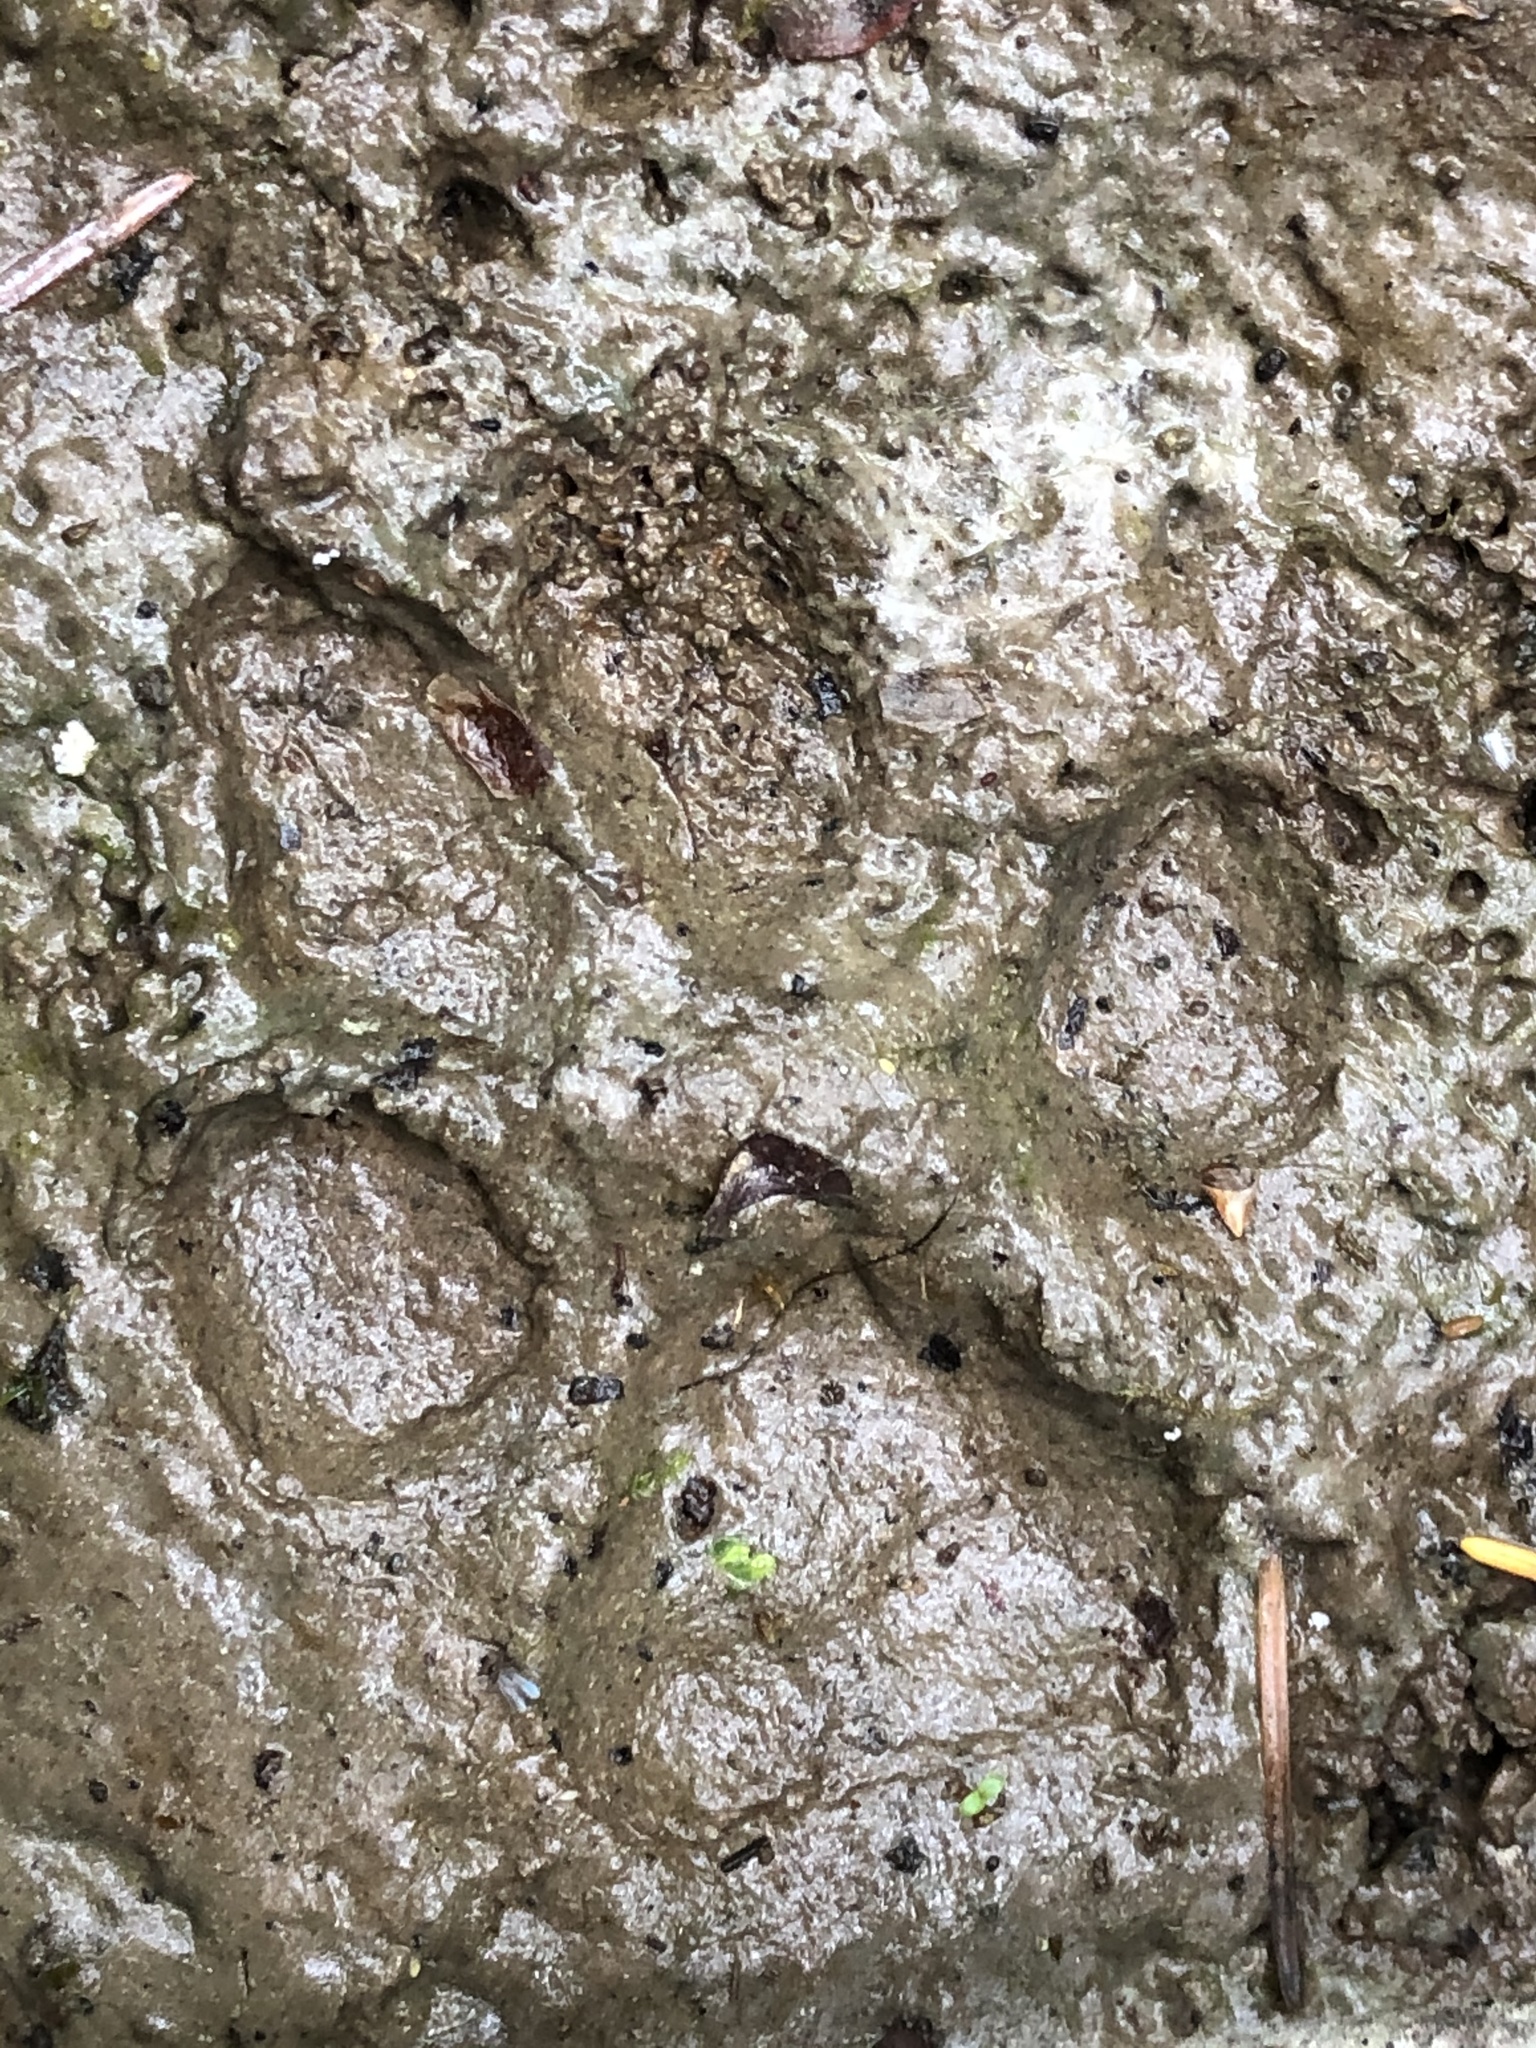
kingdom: Animalia
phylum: Chordata
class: Mammalia
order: Carnivora
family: Canidae
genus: Canis
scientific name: Canis latrans
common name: Coyote
